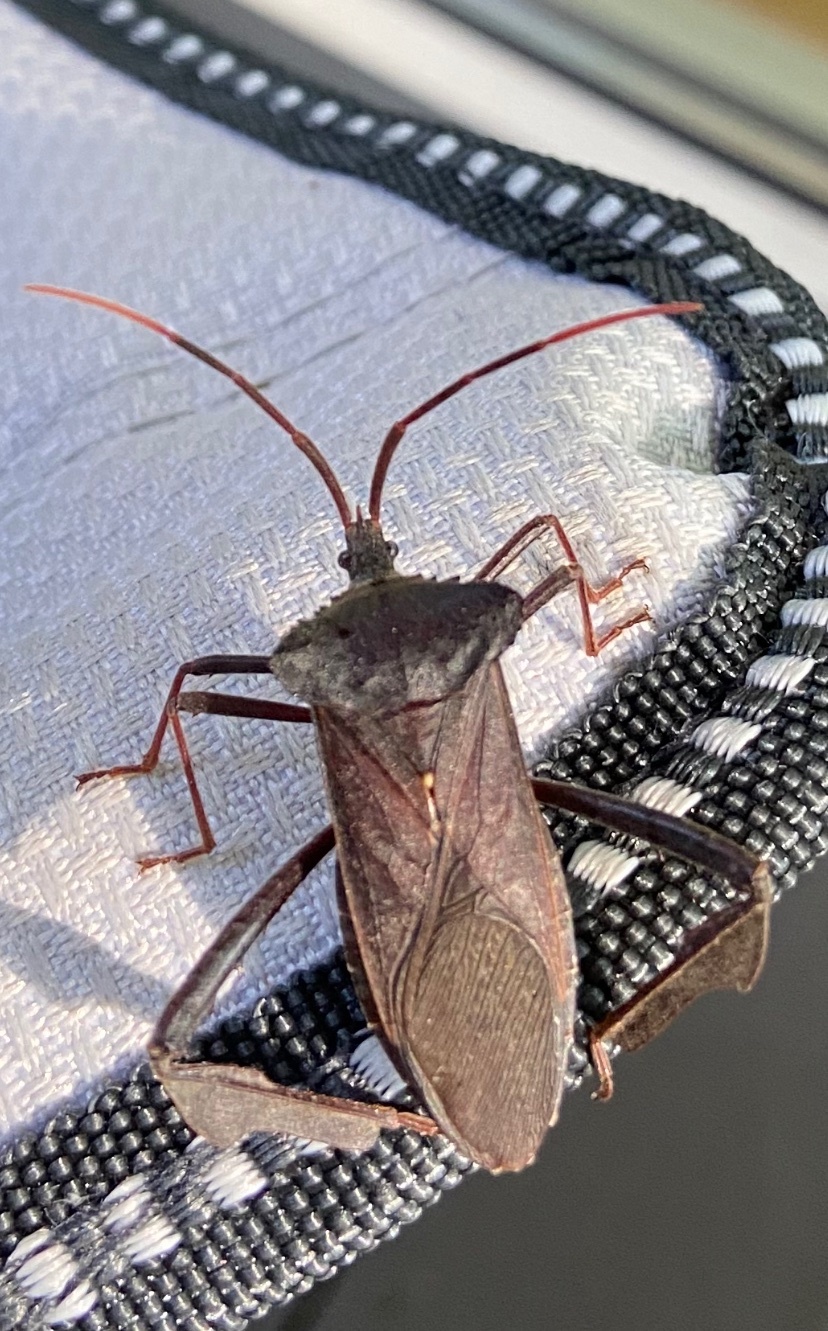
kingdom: Animalia
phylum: Arthropoda
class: Insecta
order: Hemiptera
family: Coreidae
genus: Acanthocephala
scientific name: Acanthocephala declivis
